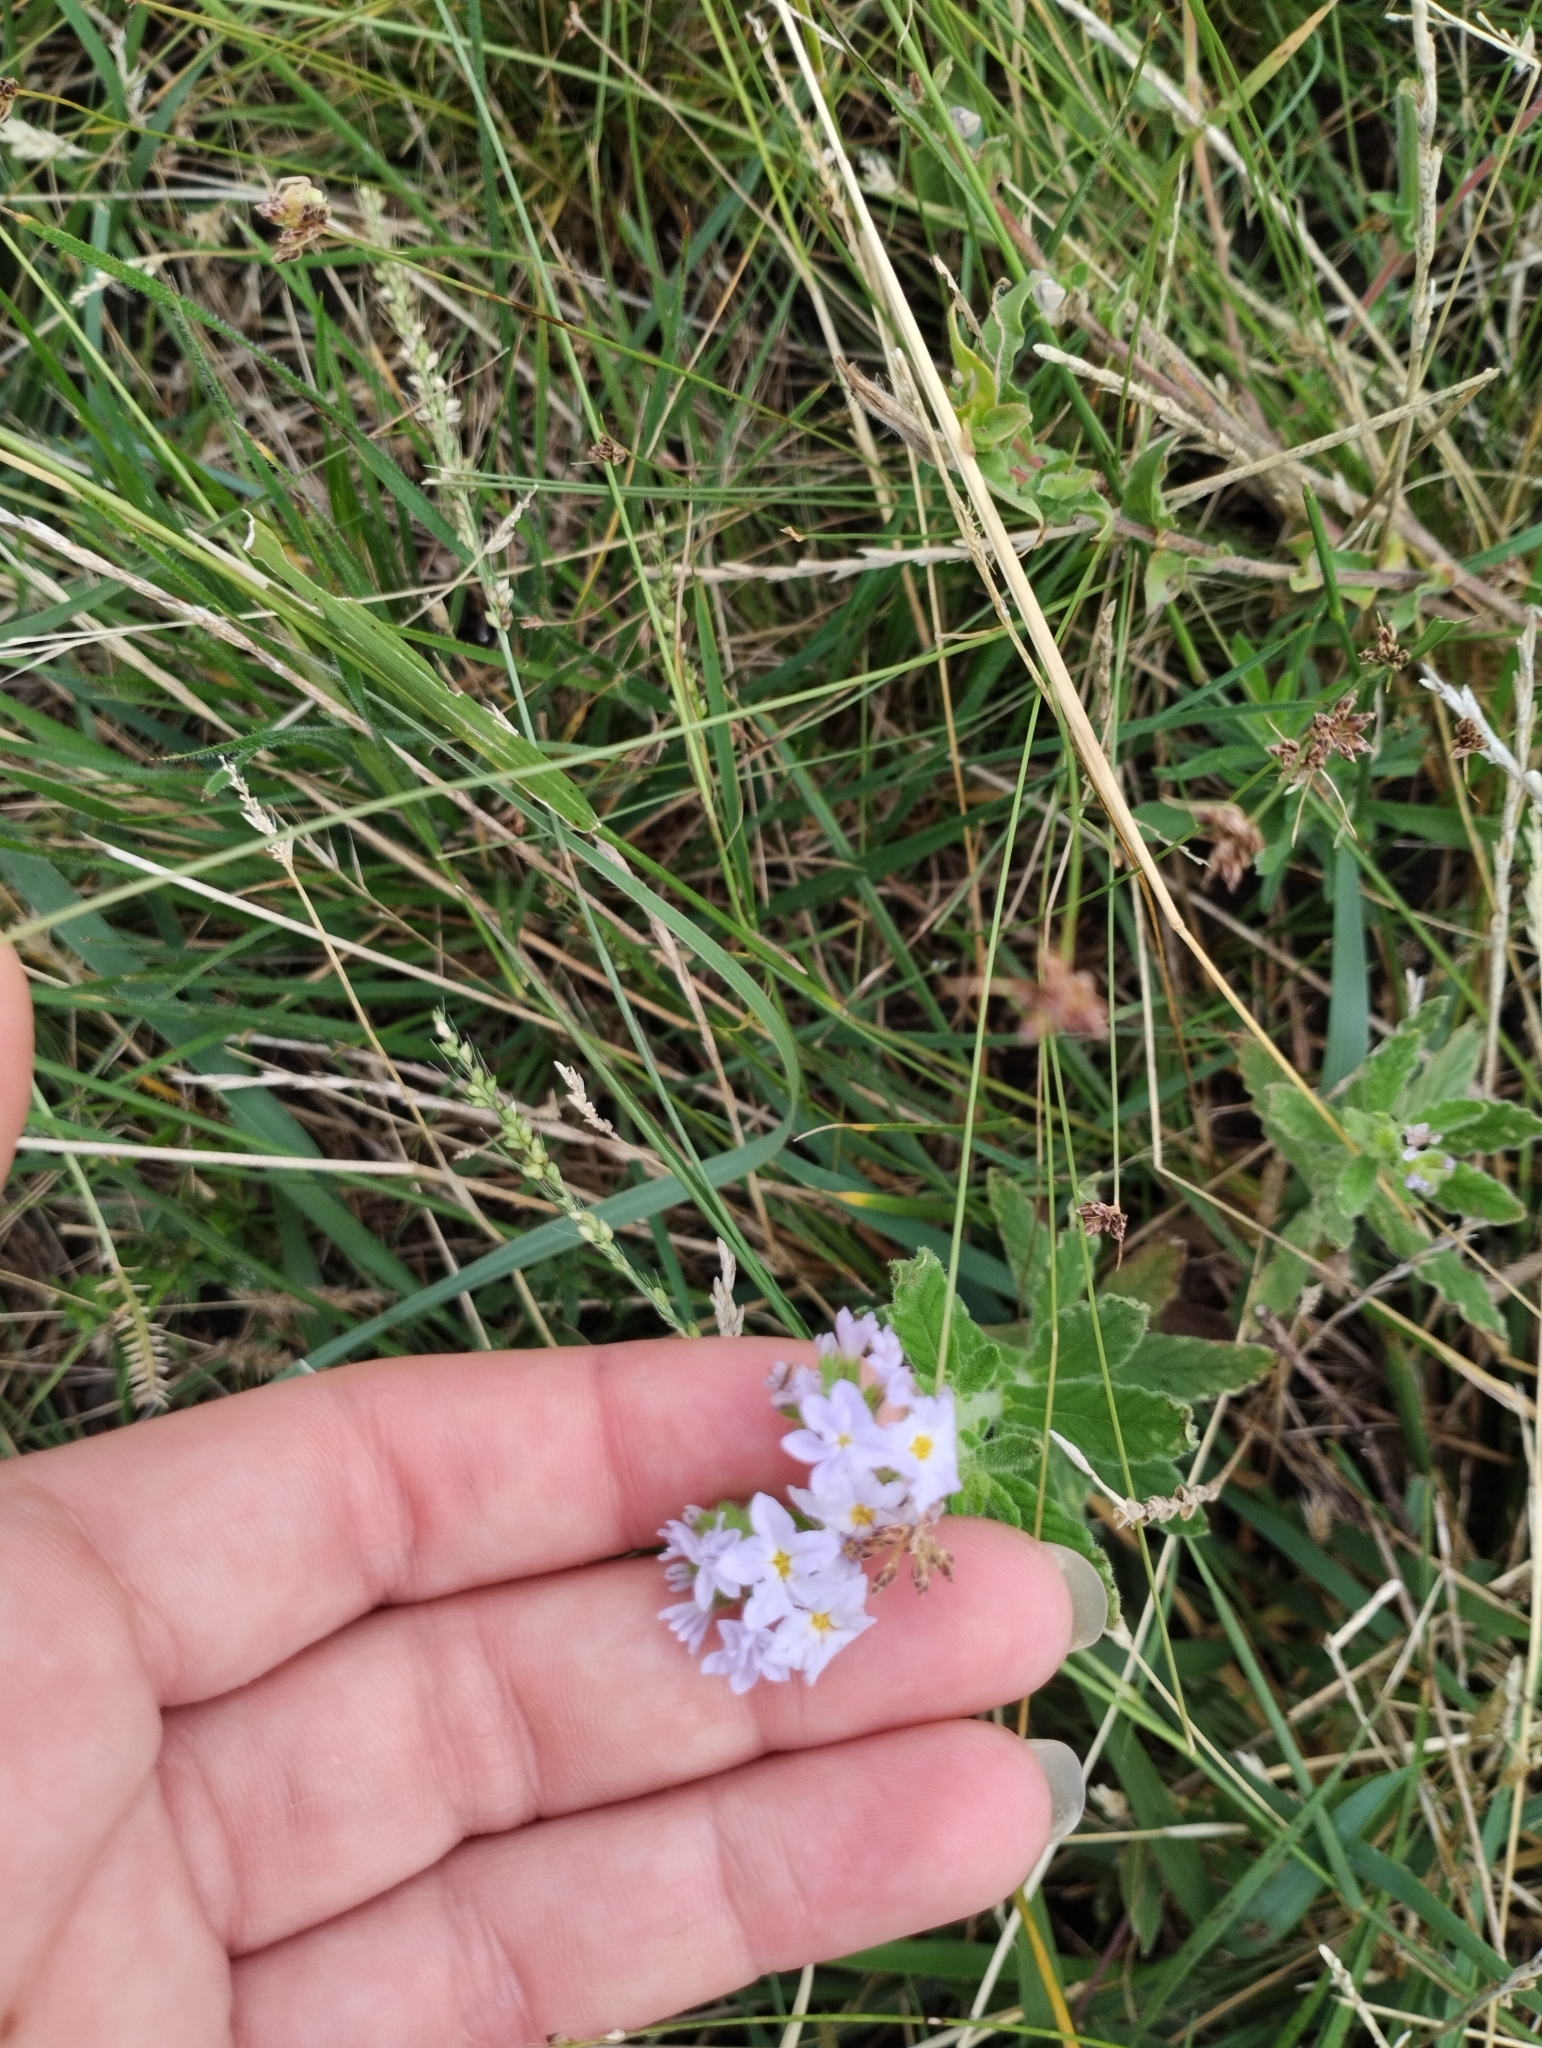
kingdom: Plantae
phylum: Tracheophyta
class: Magnoliopsida
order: Boraginales
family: Heliotropiaceae
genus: Heliotropium
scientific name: Heliotropium amplexicaule
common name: Clasping heliotrope
